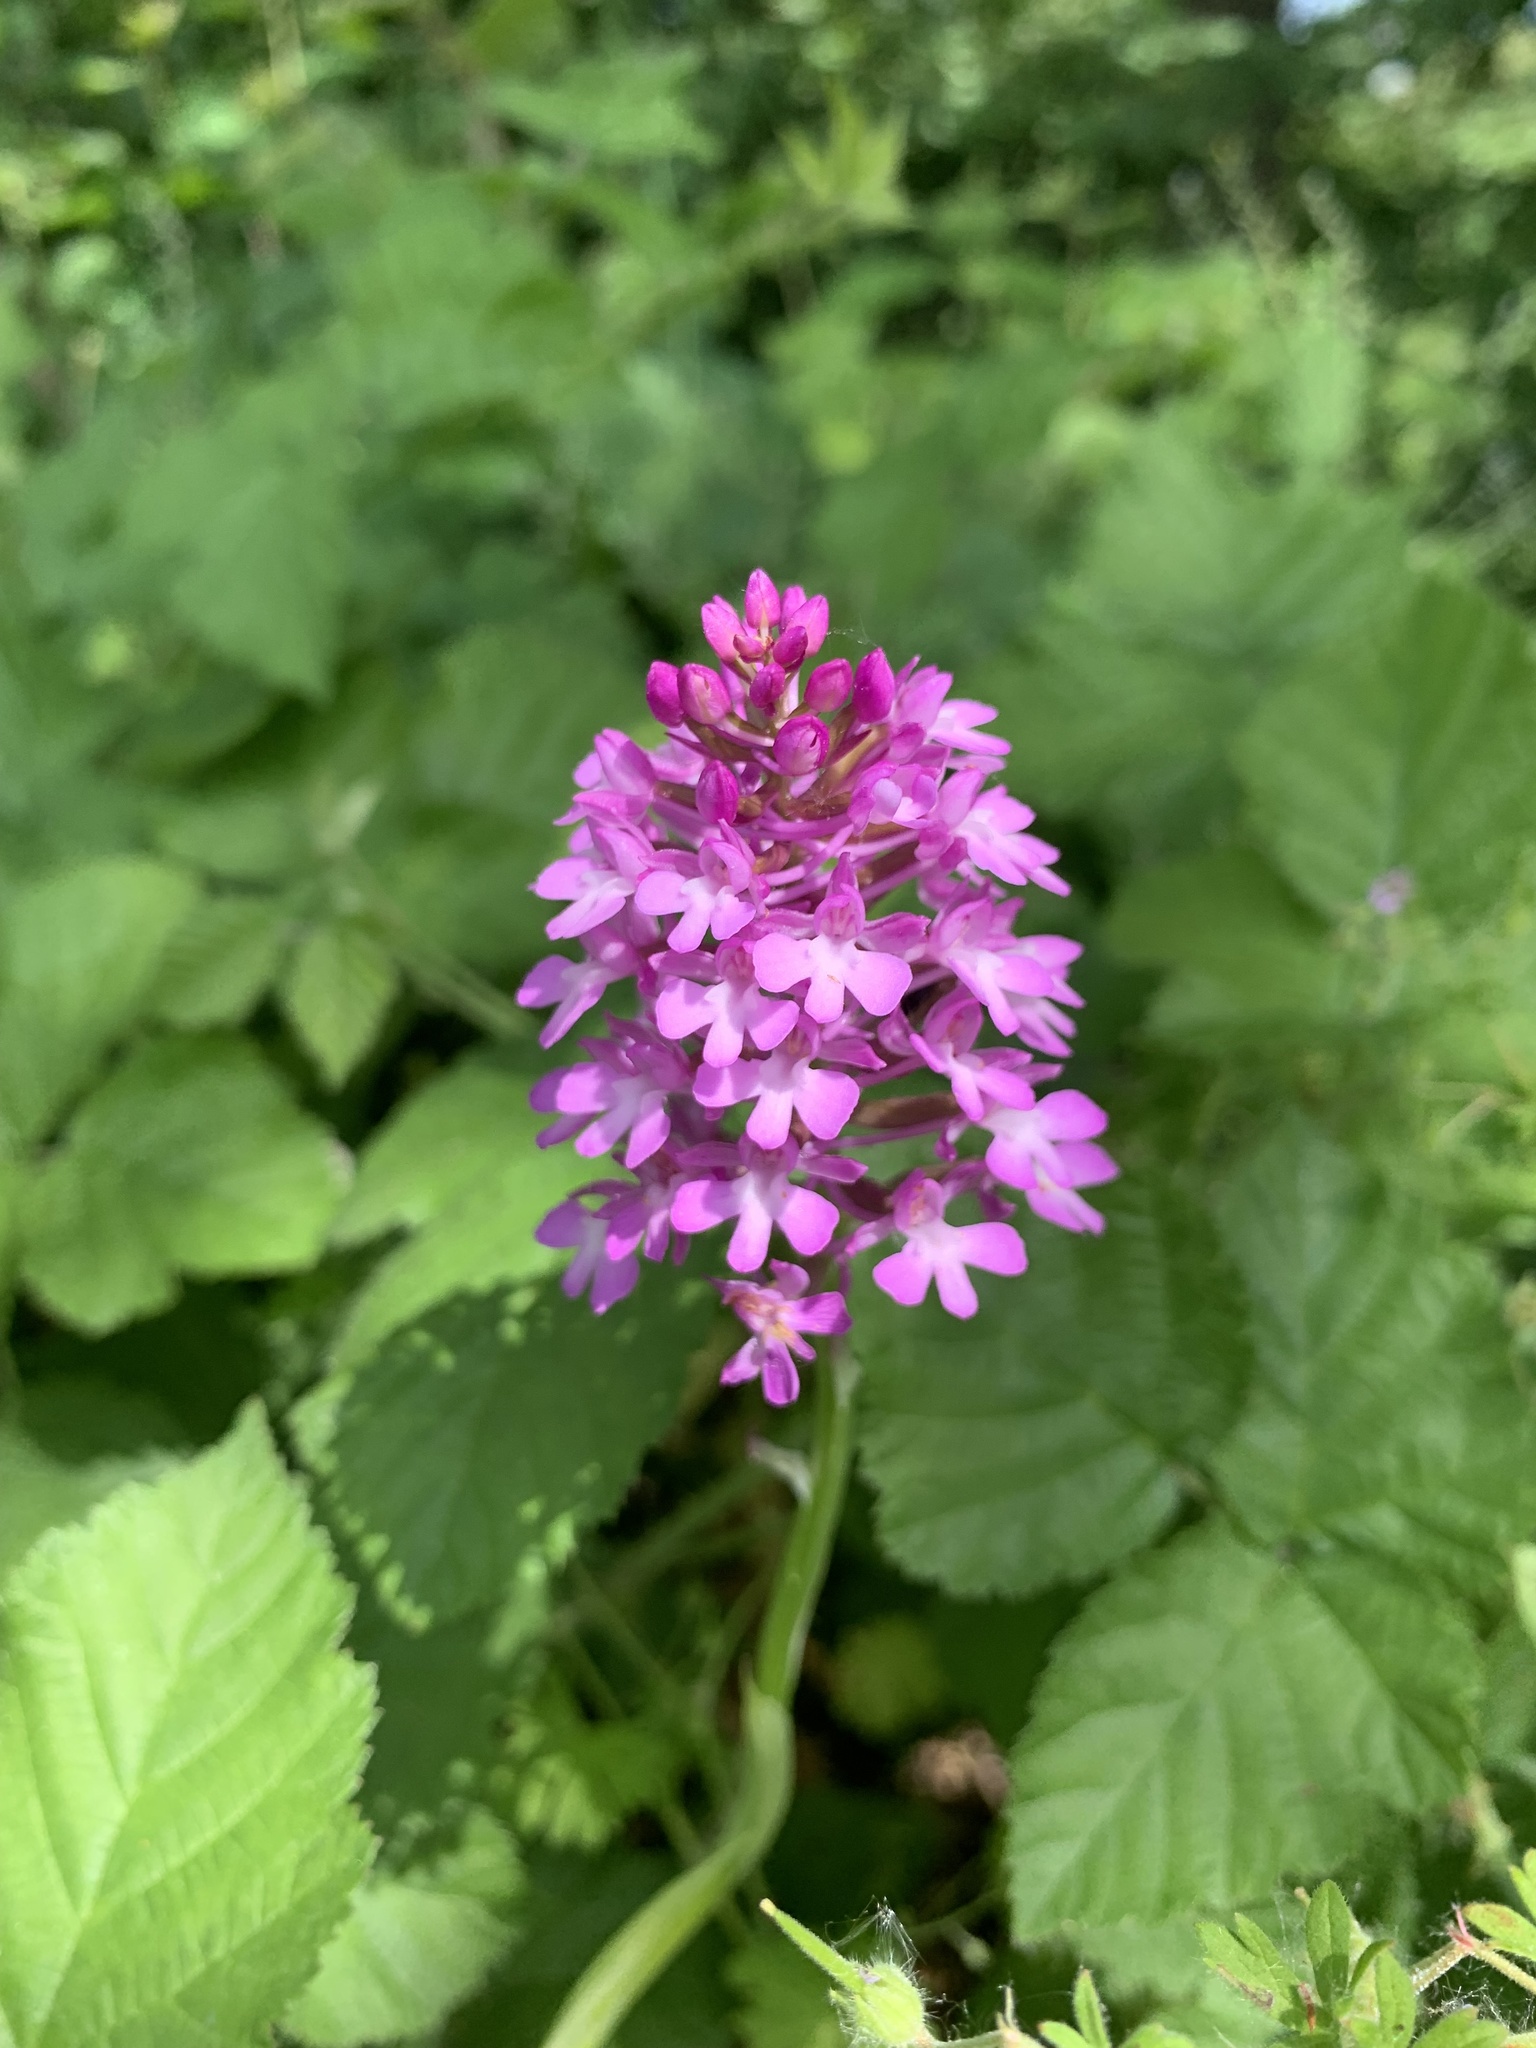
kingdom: Plantae
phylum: Tracheophyta
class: Liliopsida
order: Asparagales
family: Orchidaceae
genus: Anacamptis
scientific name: Anacamptis pyramidalis
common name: Pyramidal orchid
